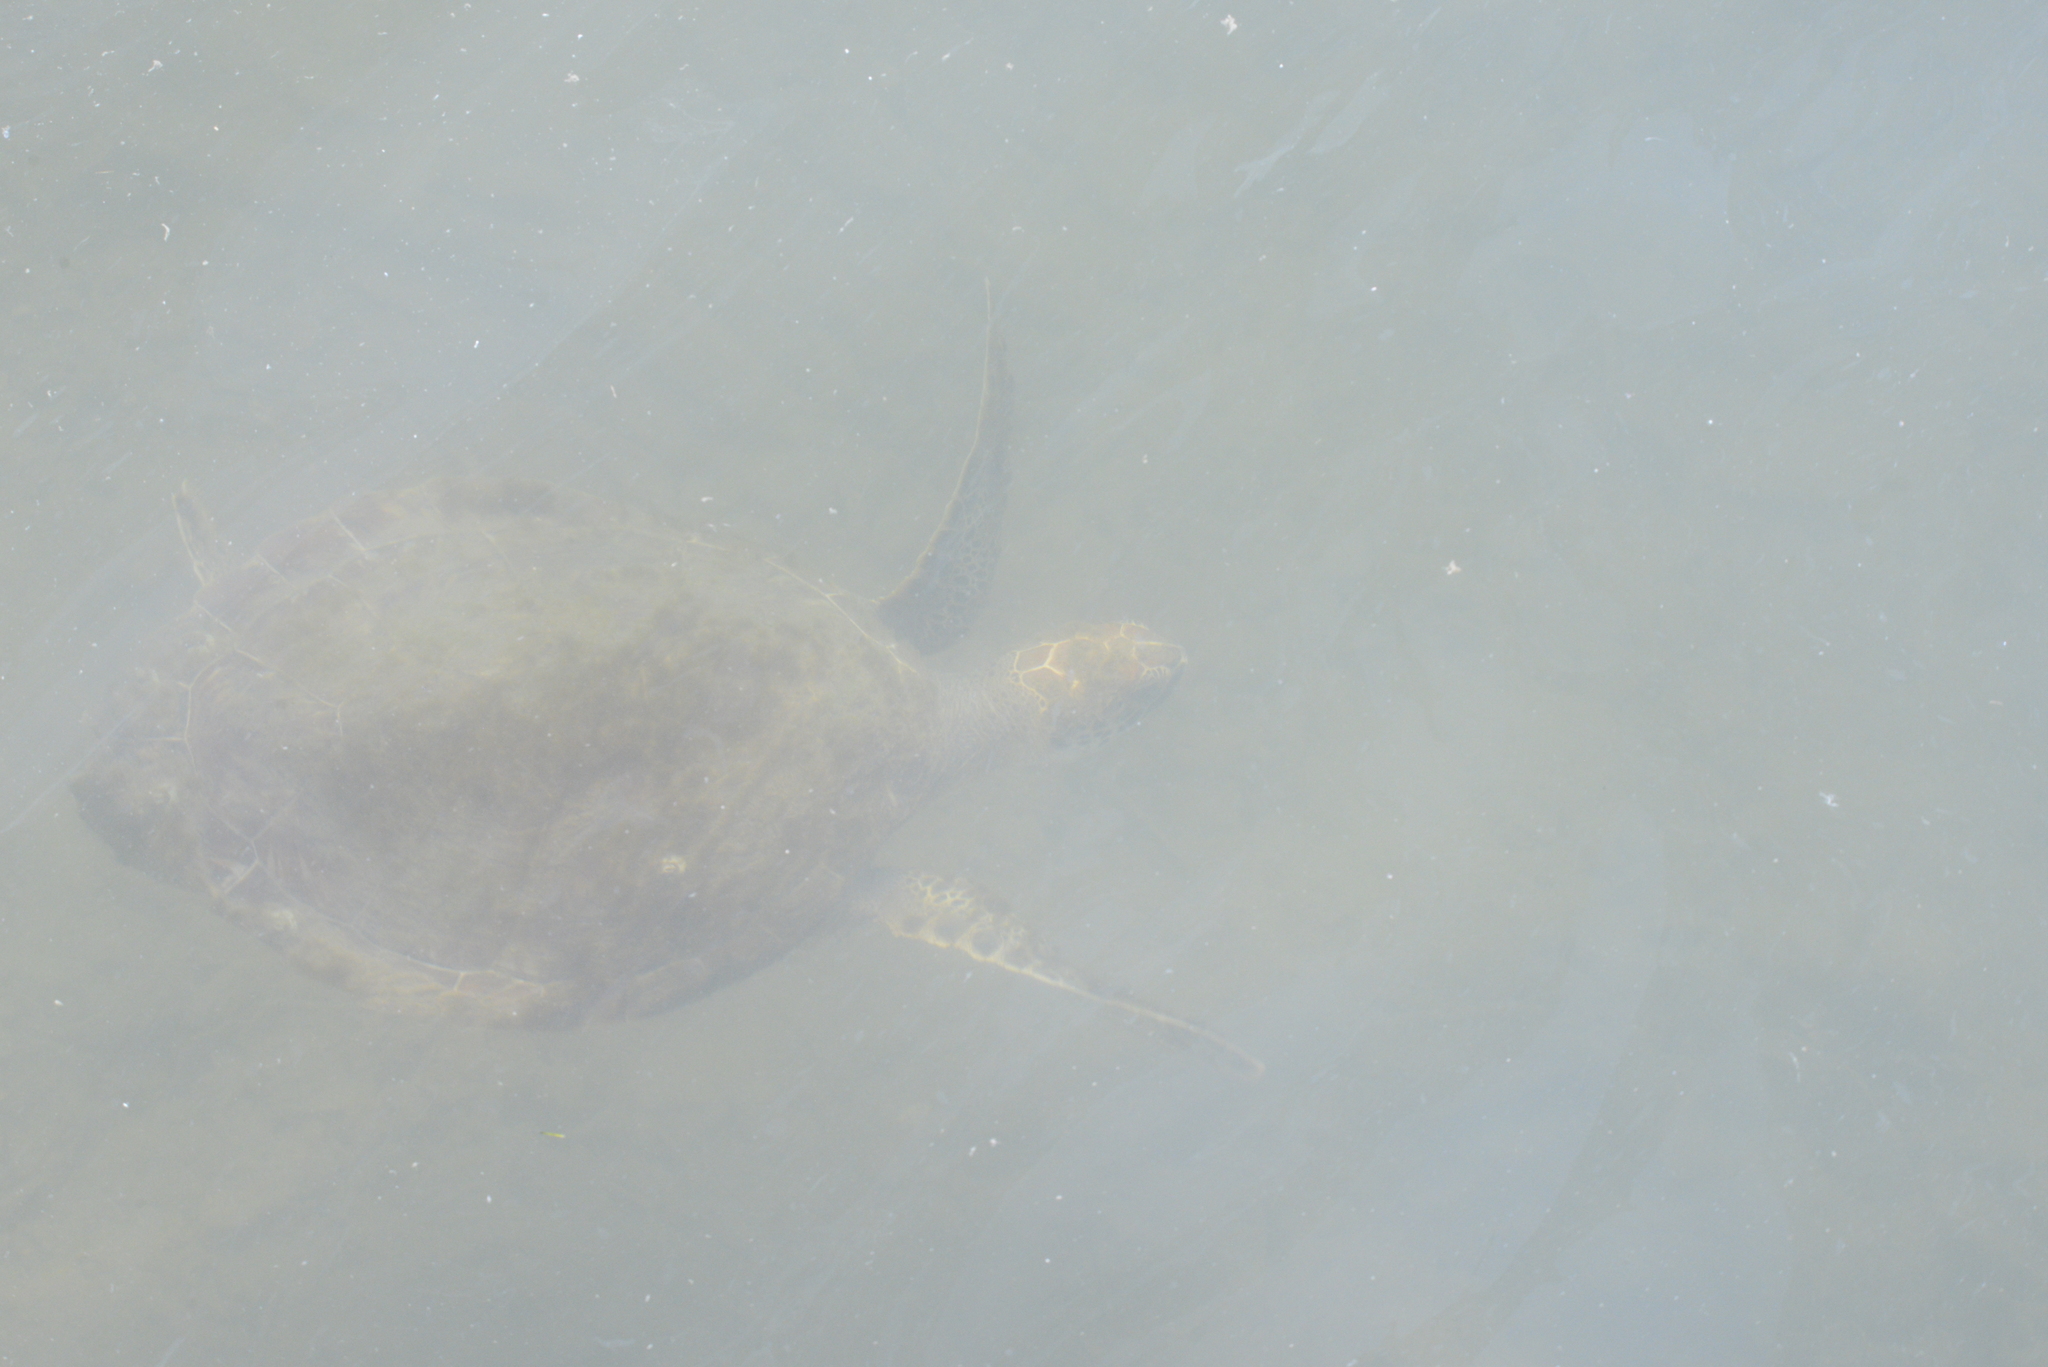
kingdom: Animalia
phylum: Chordata
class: Testudines
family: Cheloniidae
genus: Chelonia
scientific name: Chelonia mydas
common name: Green turtle
